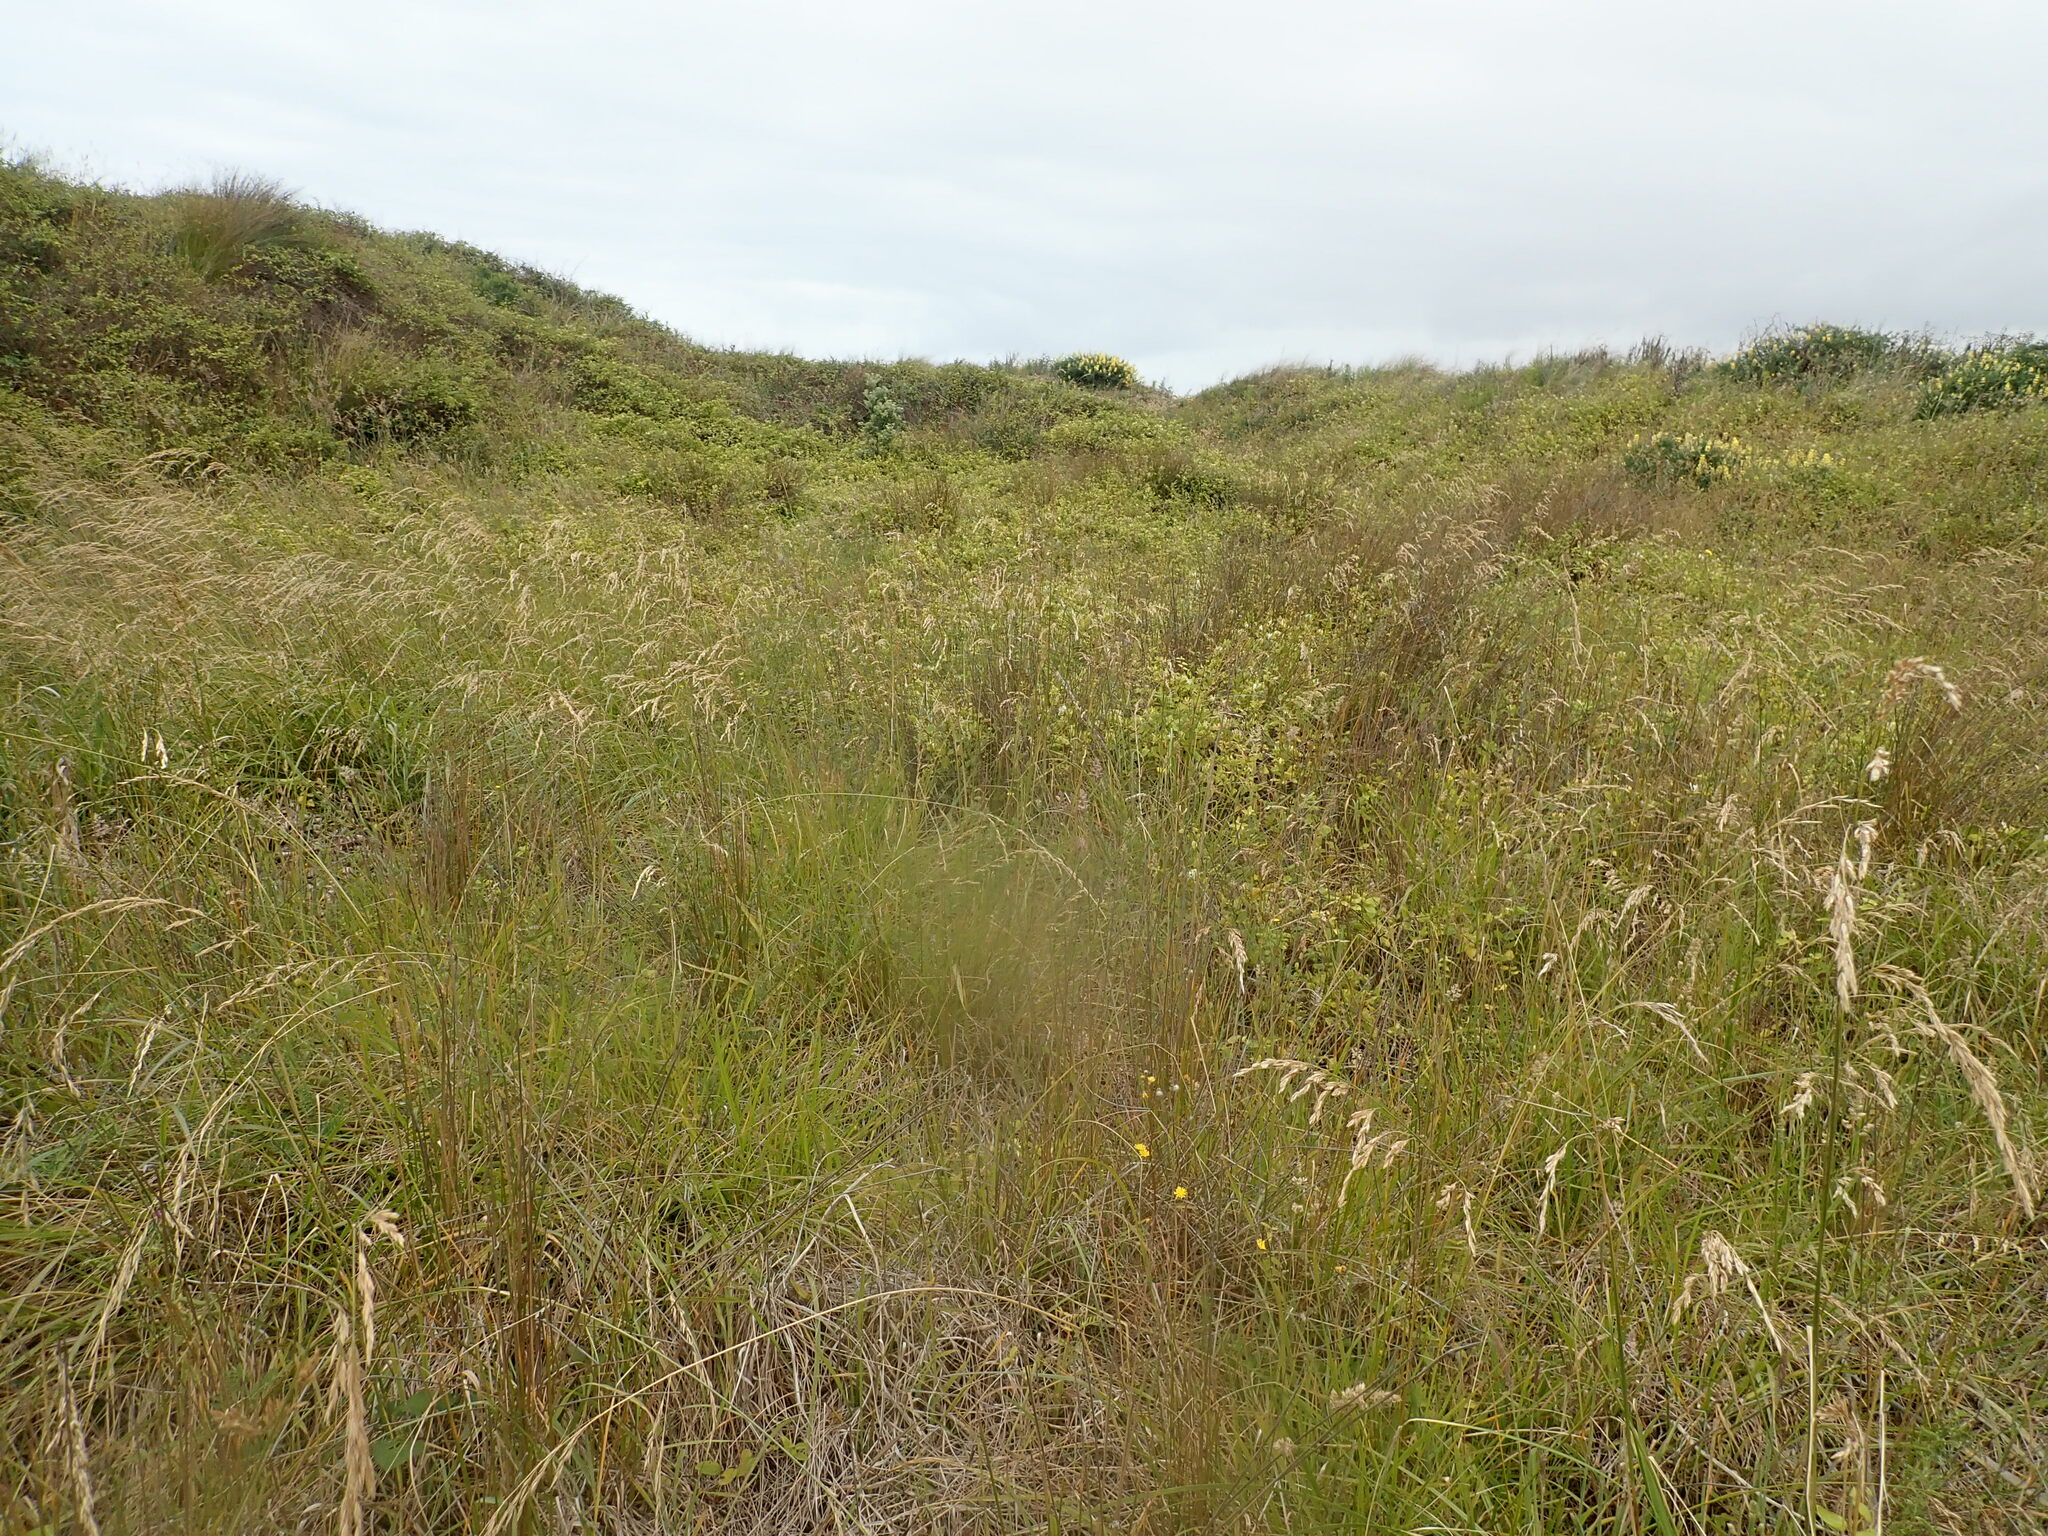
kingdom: Plantae
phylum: Tracheophyta
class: Magnoliopsida
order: Dipsacales
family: Caprifoliaceae
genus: Lonicera
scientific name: Lonicera japonica
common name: Japanese honeysuckle
